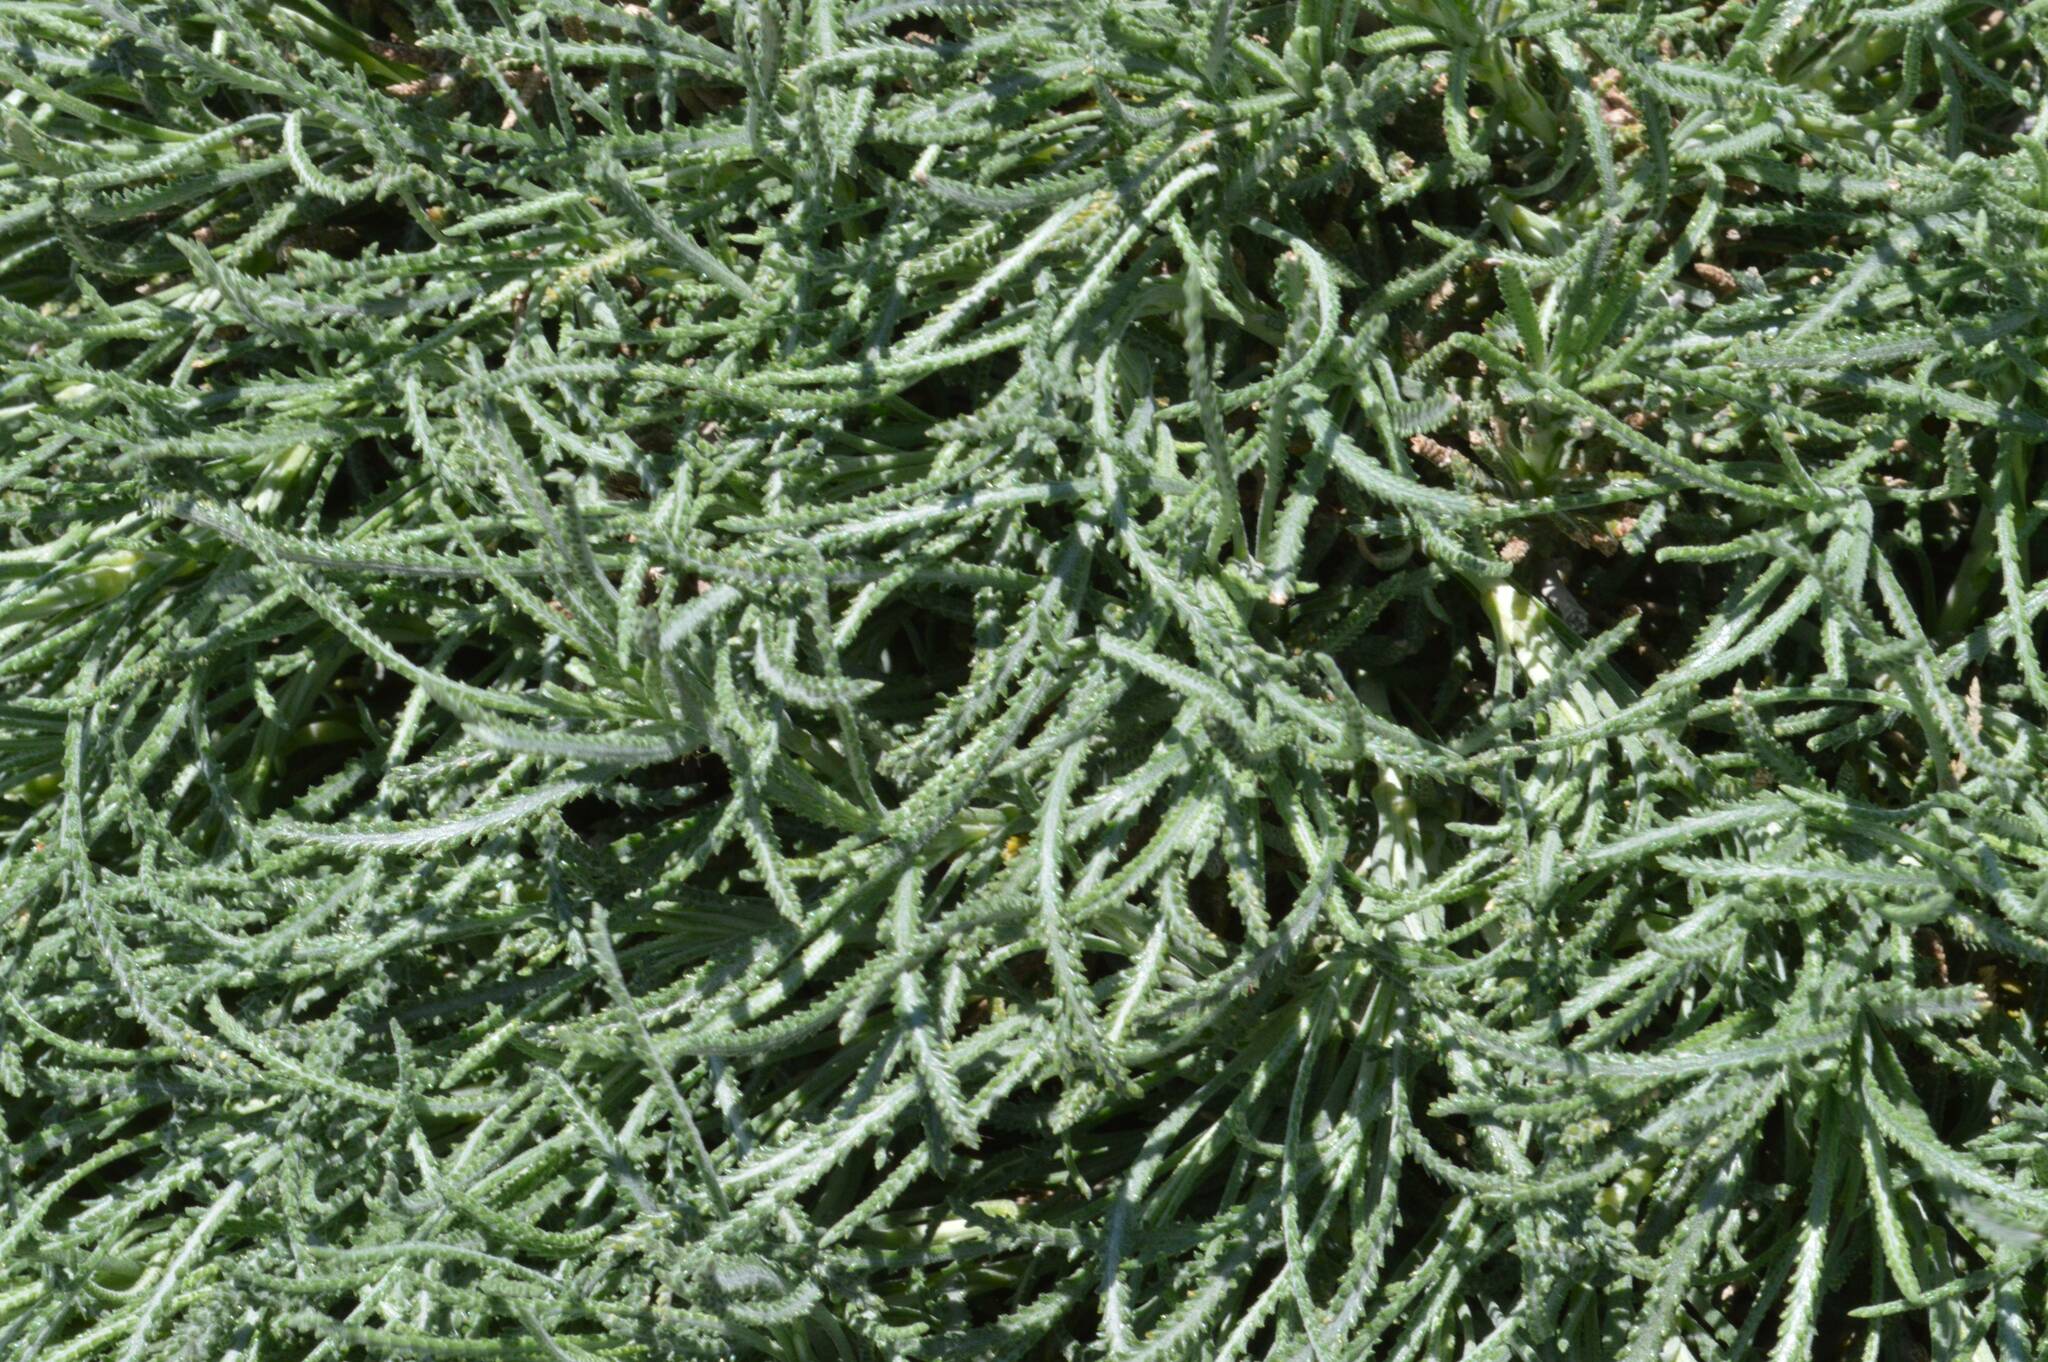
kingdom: Plantae
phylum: Tracheophyta
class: Magnoliopsida
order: Asterales
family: Asteraceae
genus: Santolina
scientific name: Santolina pectinata
